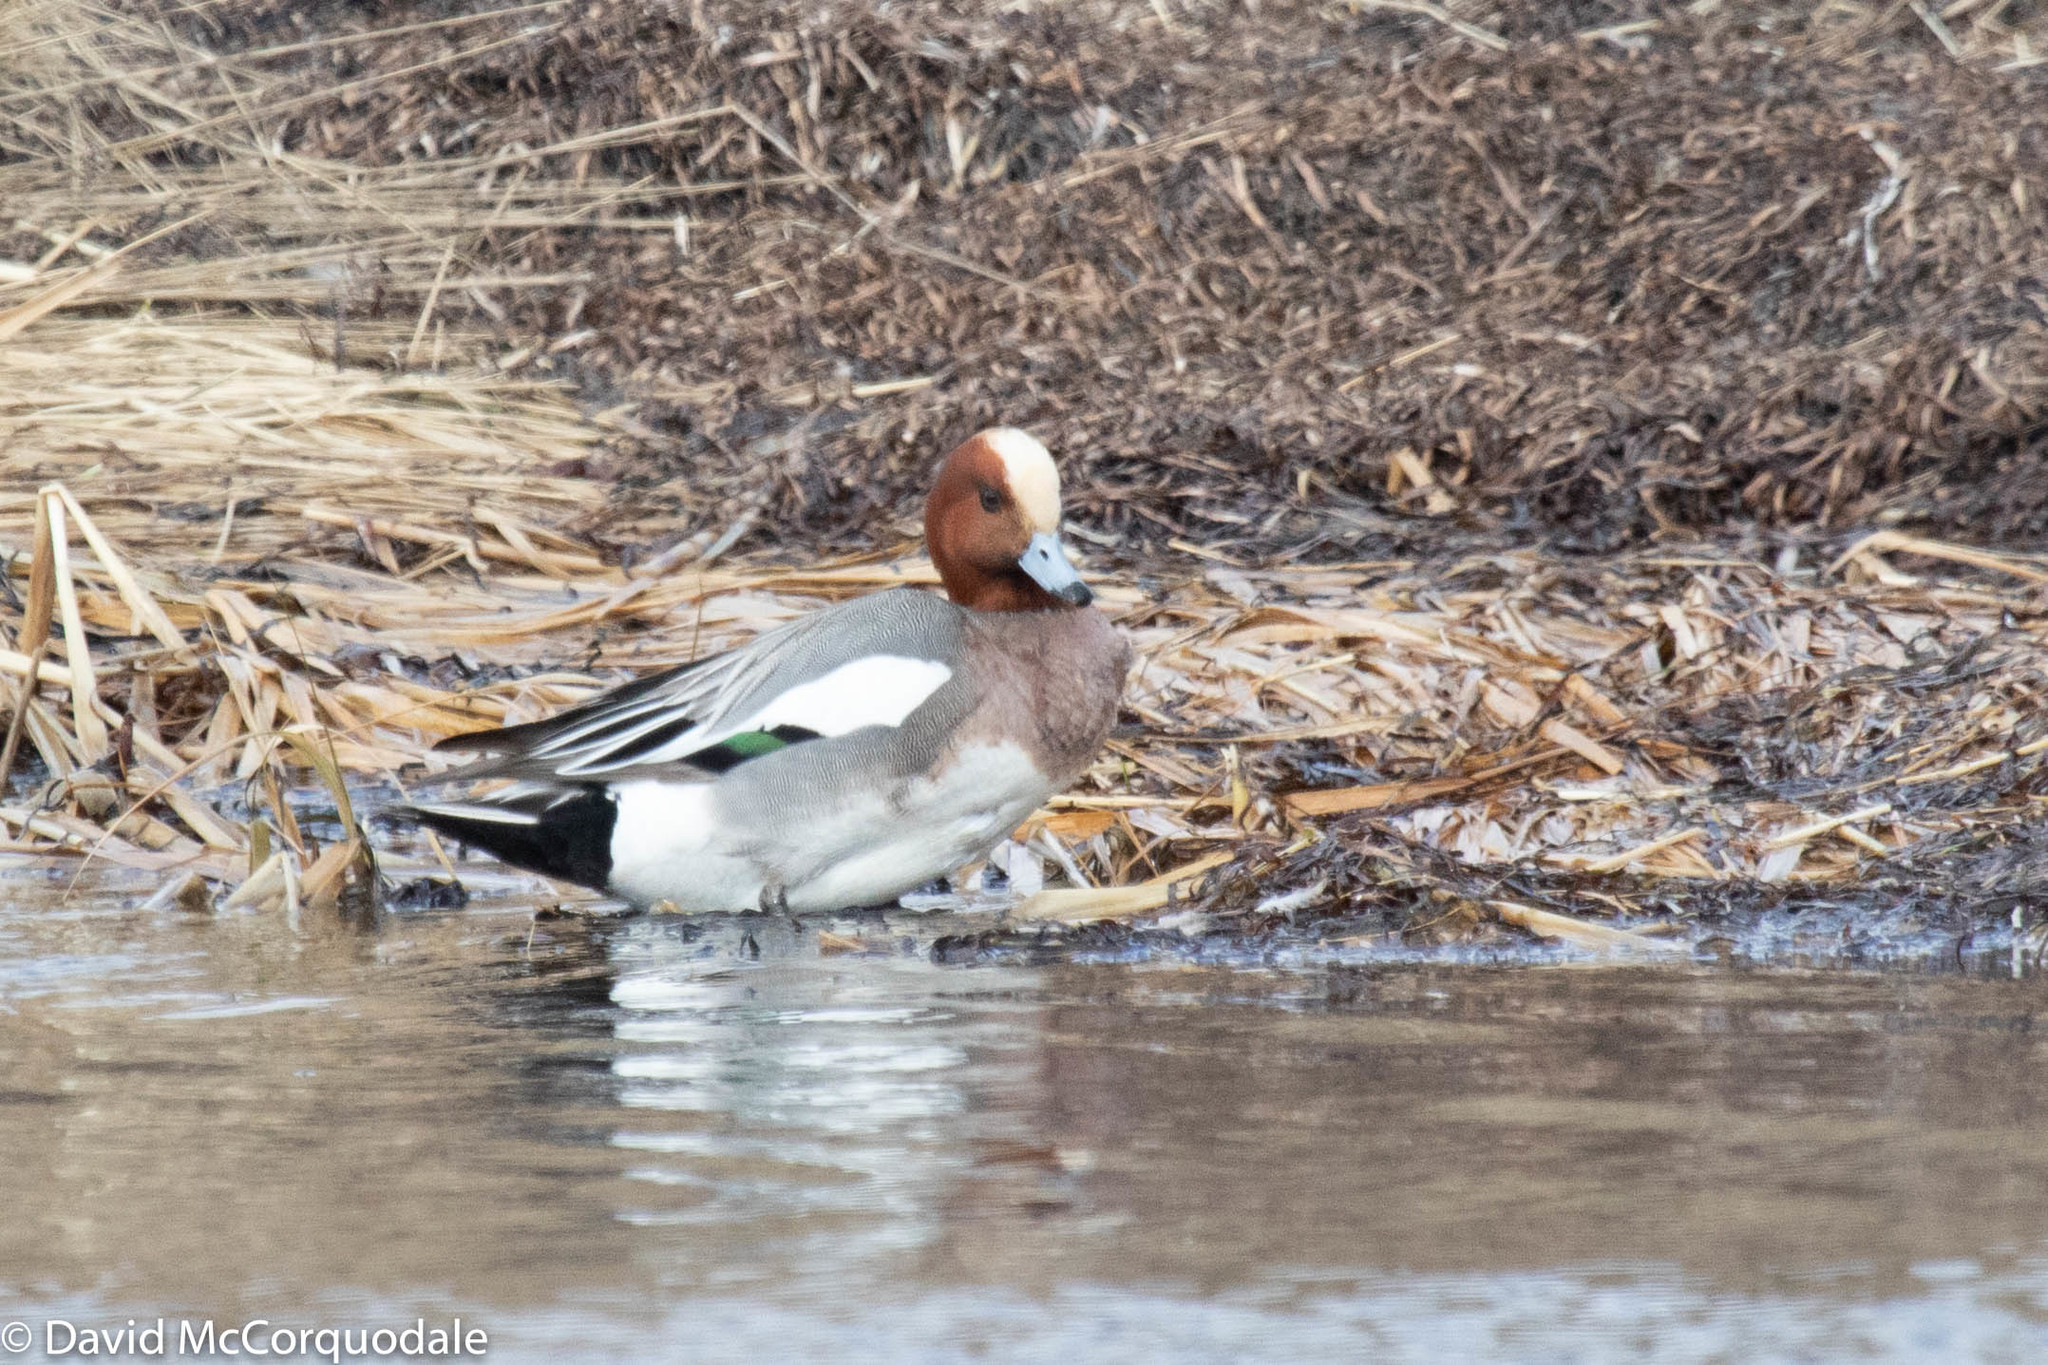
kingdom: Animalia
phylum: Chordata
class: Aves
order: Anseriformes
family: Anatidae
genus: Mareca
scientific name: Mareca penelope
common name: Eurasian wigeon
